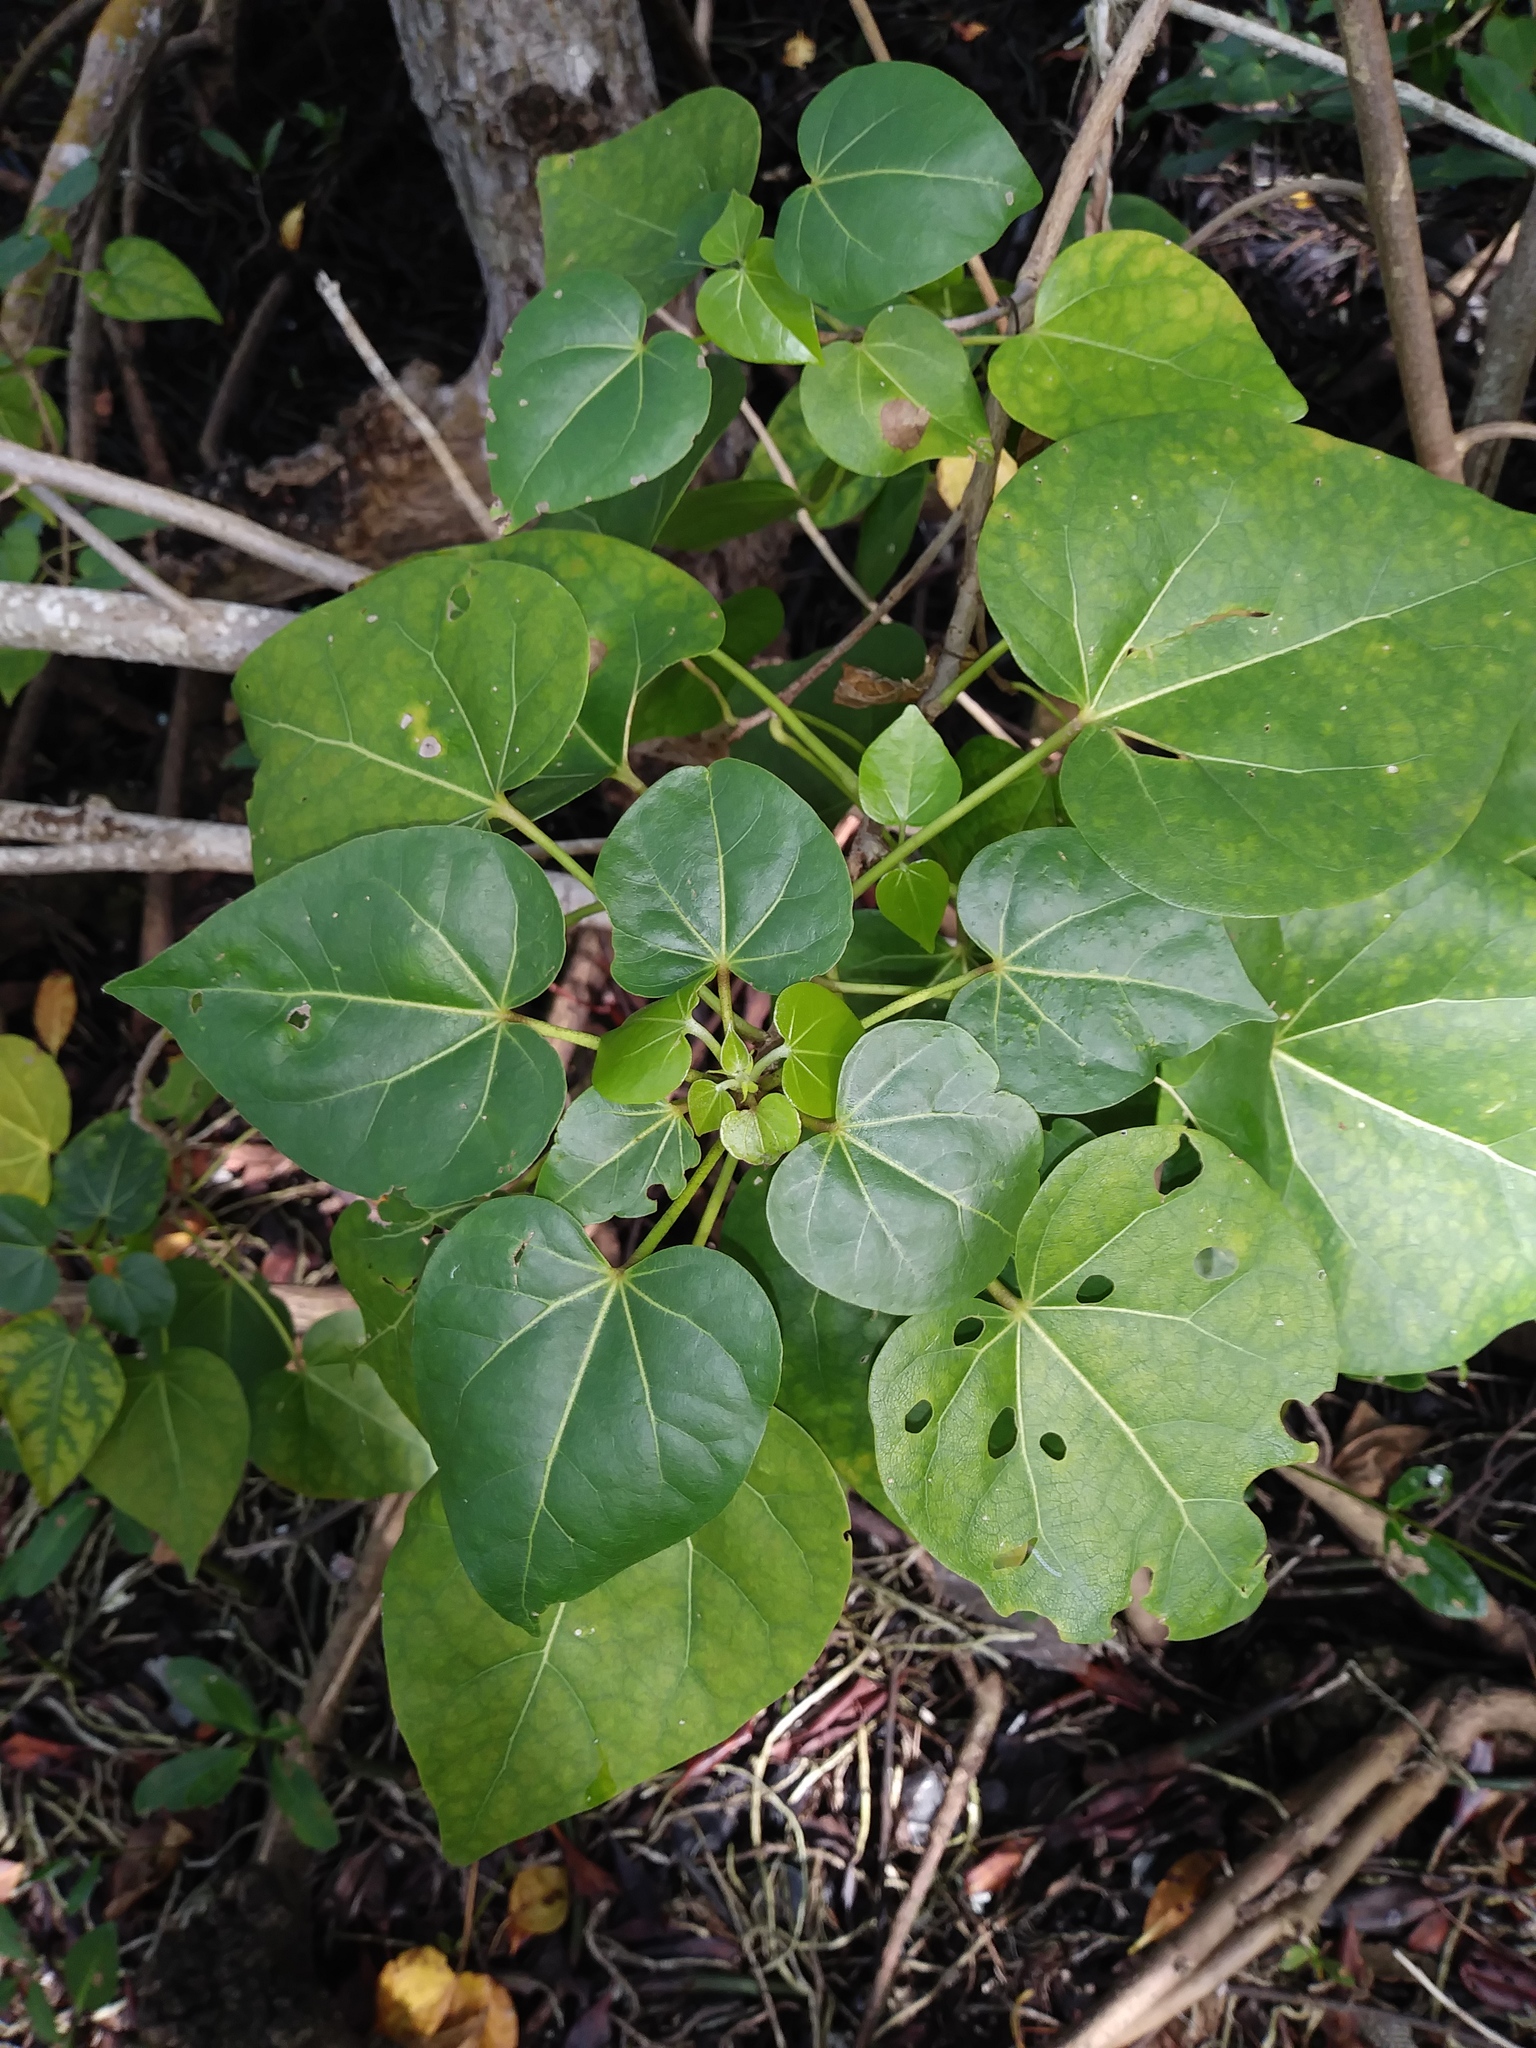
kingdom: Plantae
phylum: Tracheophyta
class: Magnoliopsida
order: Malvales
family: Malvaceae
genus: Thespesia
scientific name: Thespesia populnea
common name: Seaside mahoe
